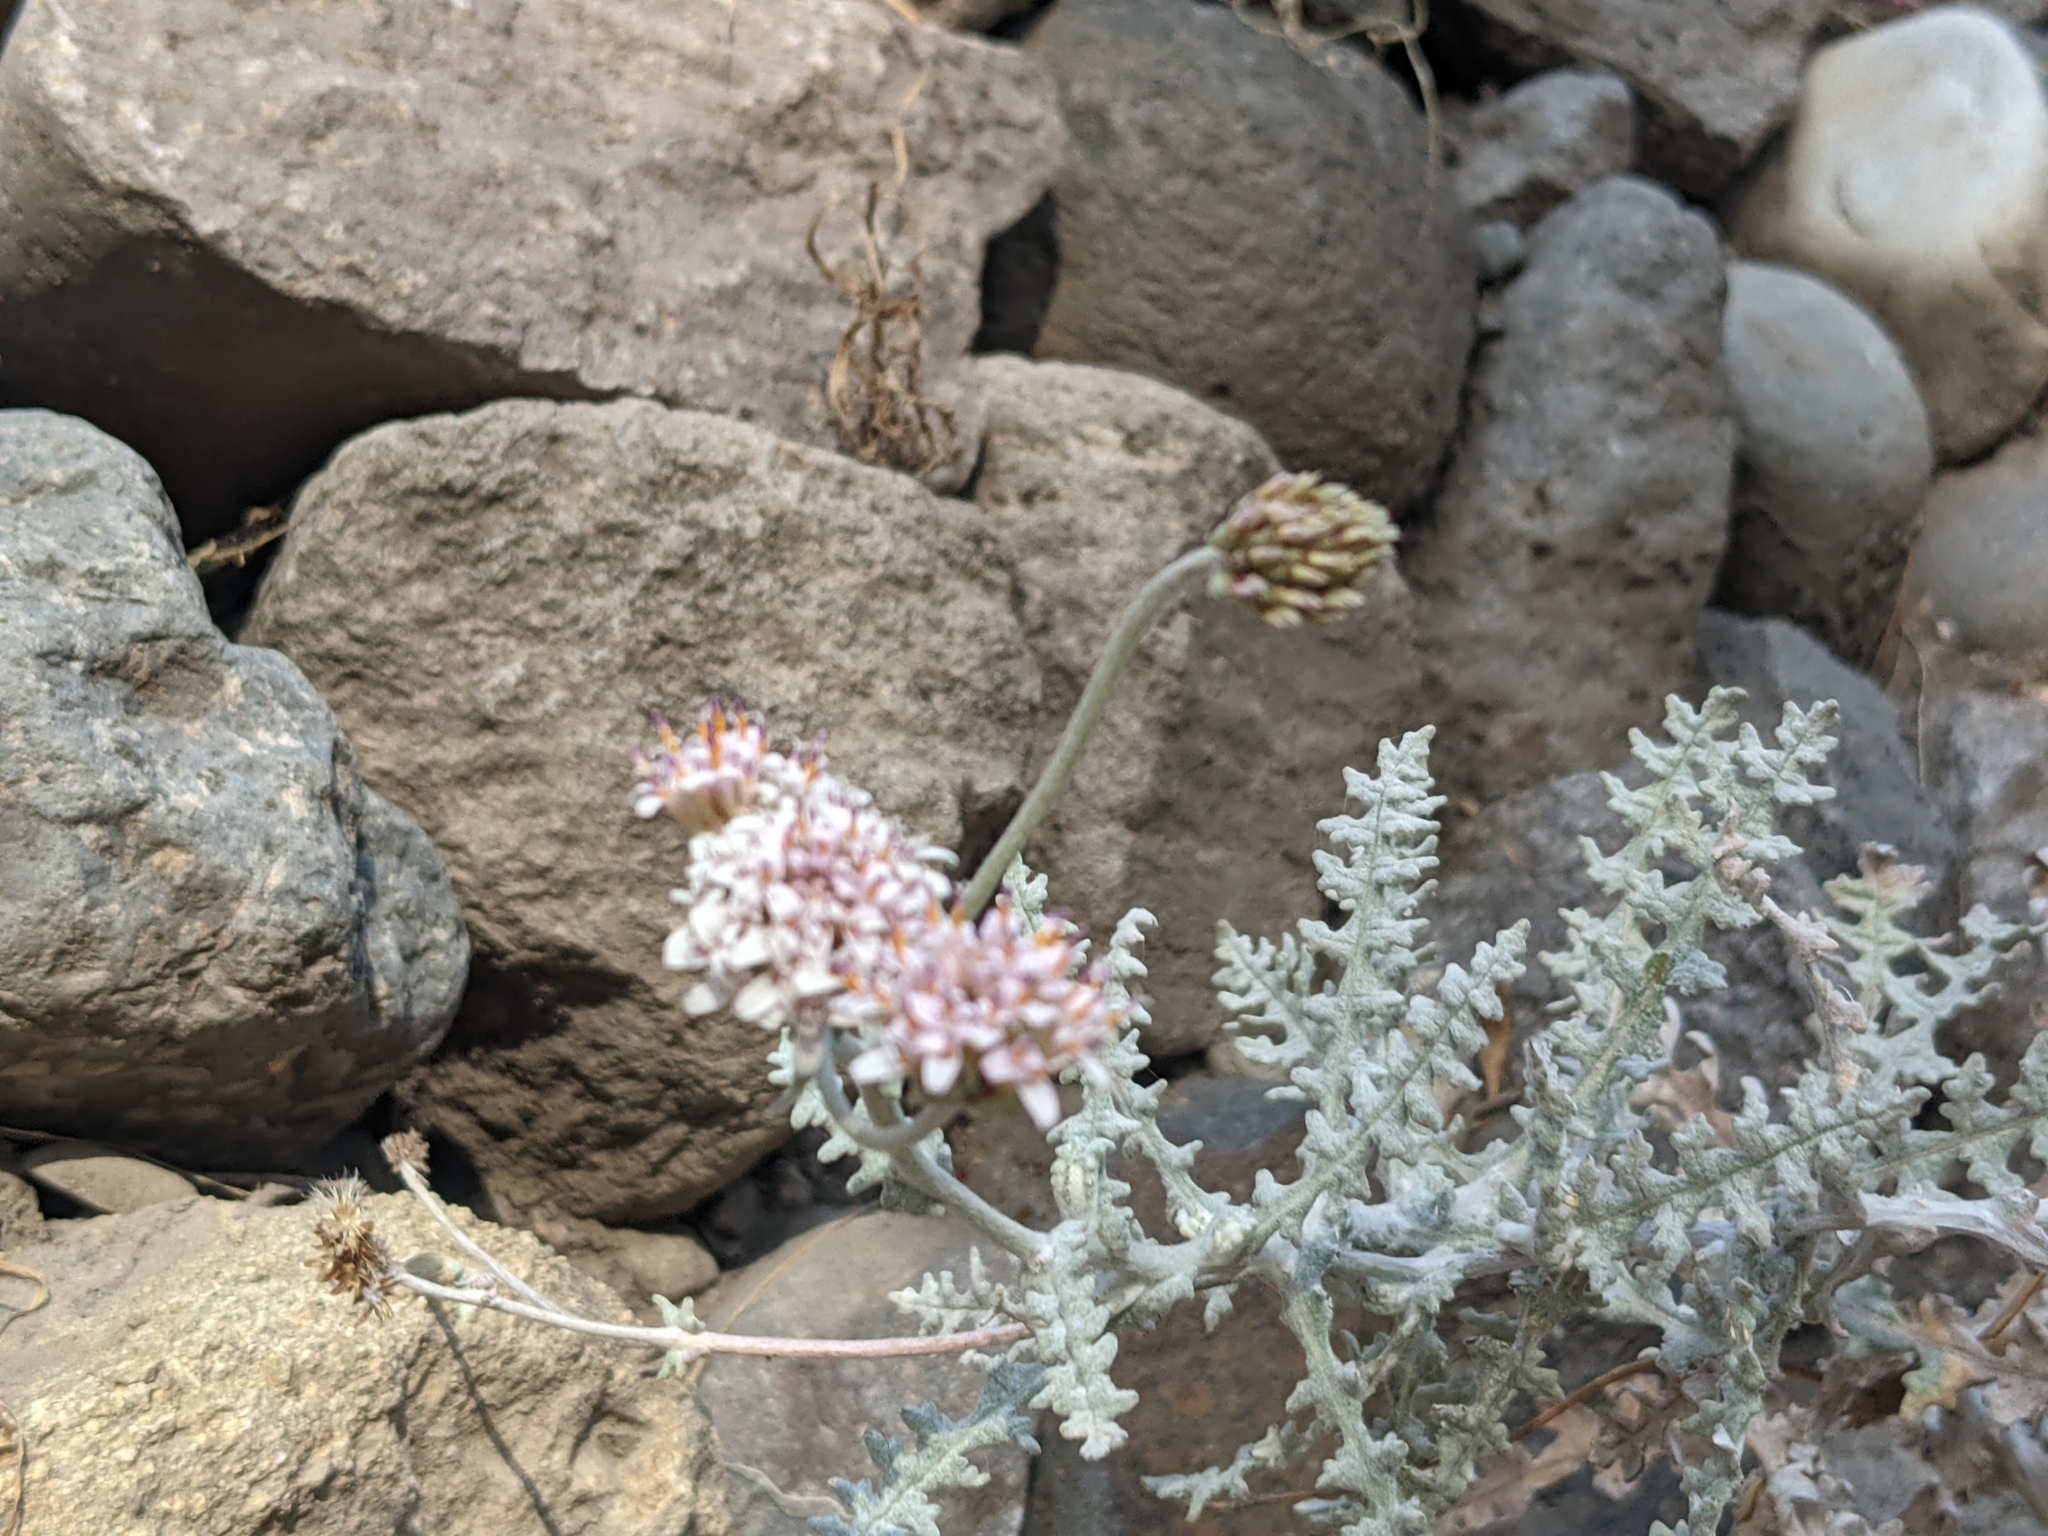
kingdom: Plantae
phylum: Tracheophyta
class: Magnoliopsida
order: Asterales
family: Asteraceae
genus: Polyachyrus
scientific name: Polyachyrus sphaerocephalus
